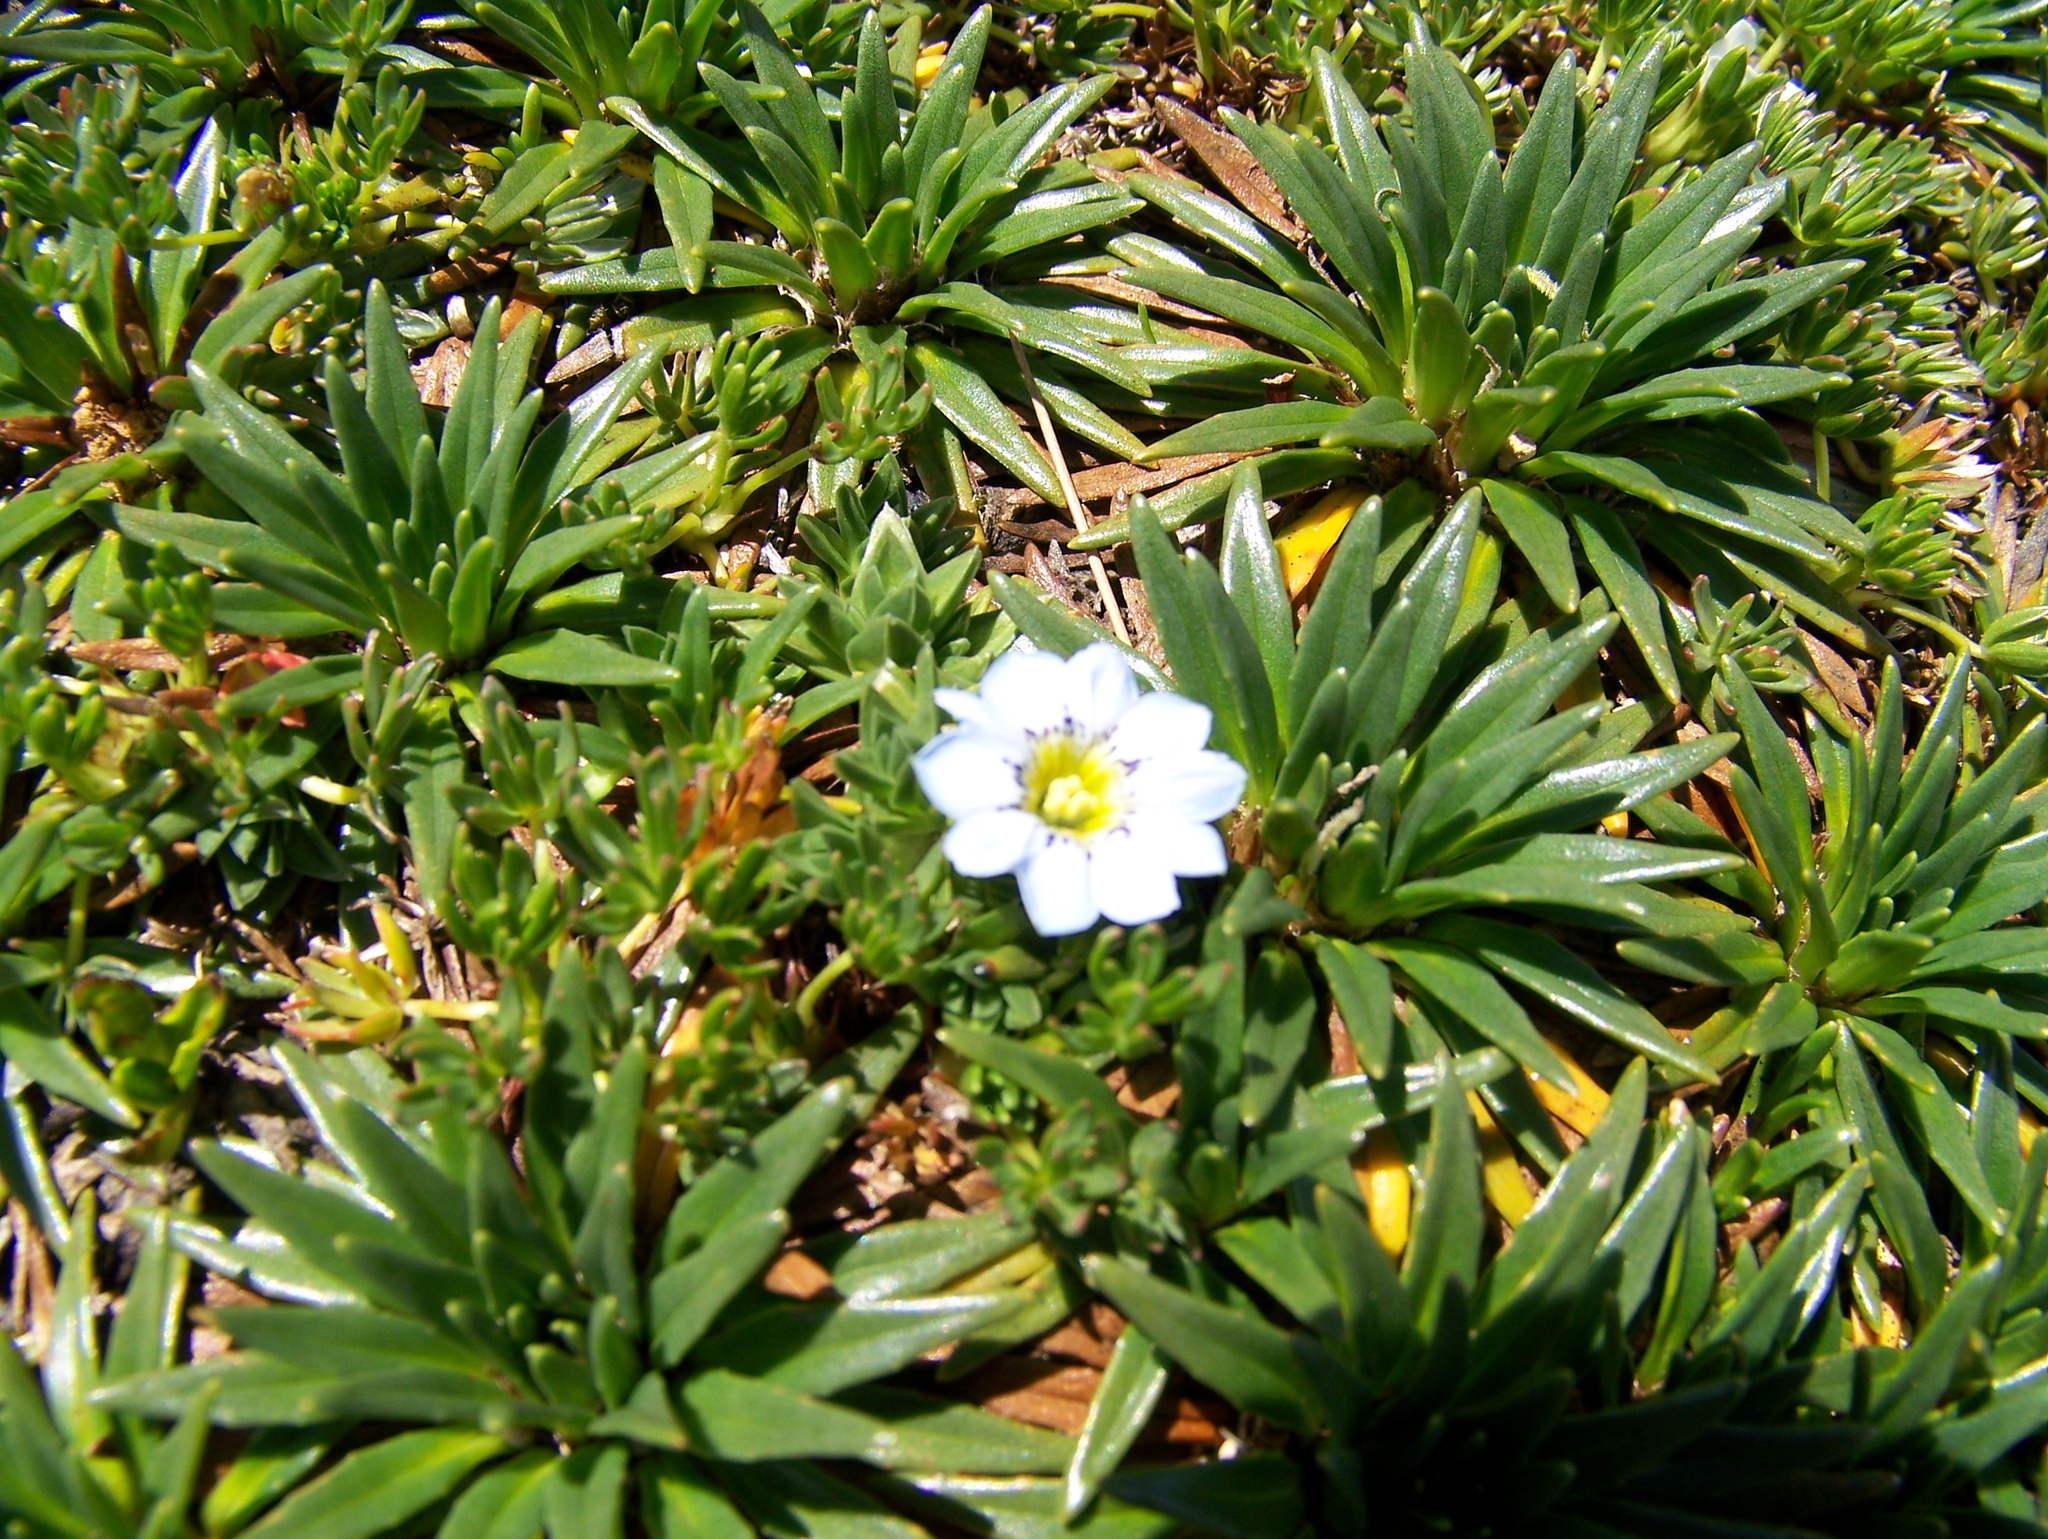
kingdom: Plantae
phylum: Tracheophyta
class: Magnoliopsida
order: Gentianales
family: Gentianaceae
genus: Gentiana
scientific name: Gentiana sedifolia
